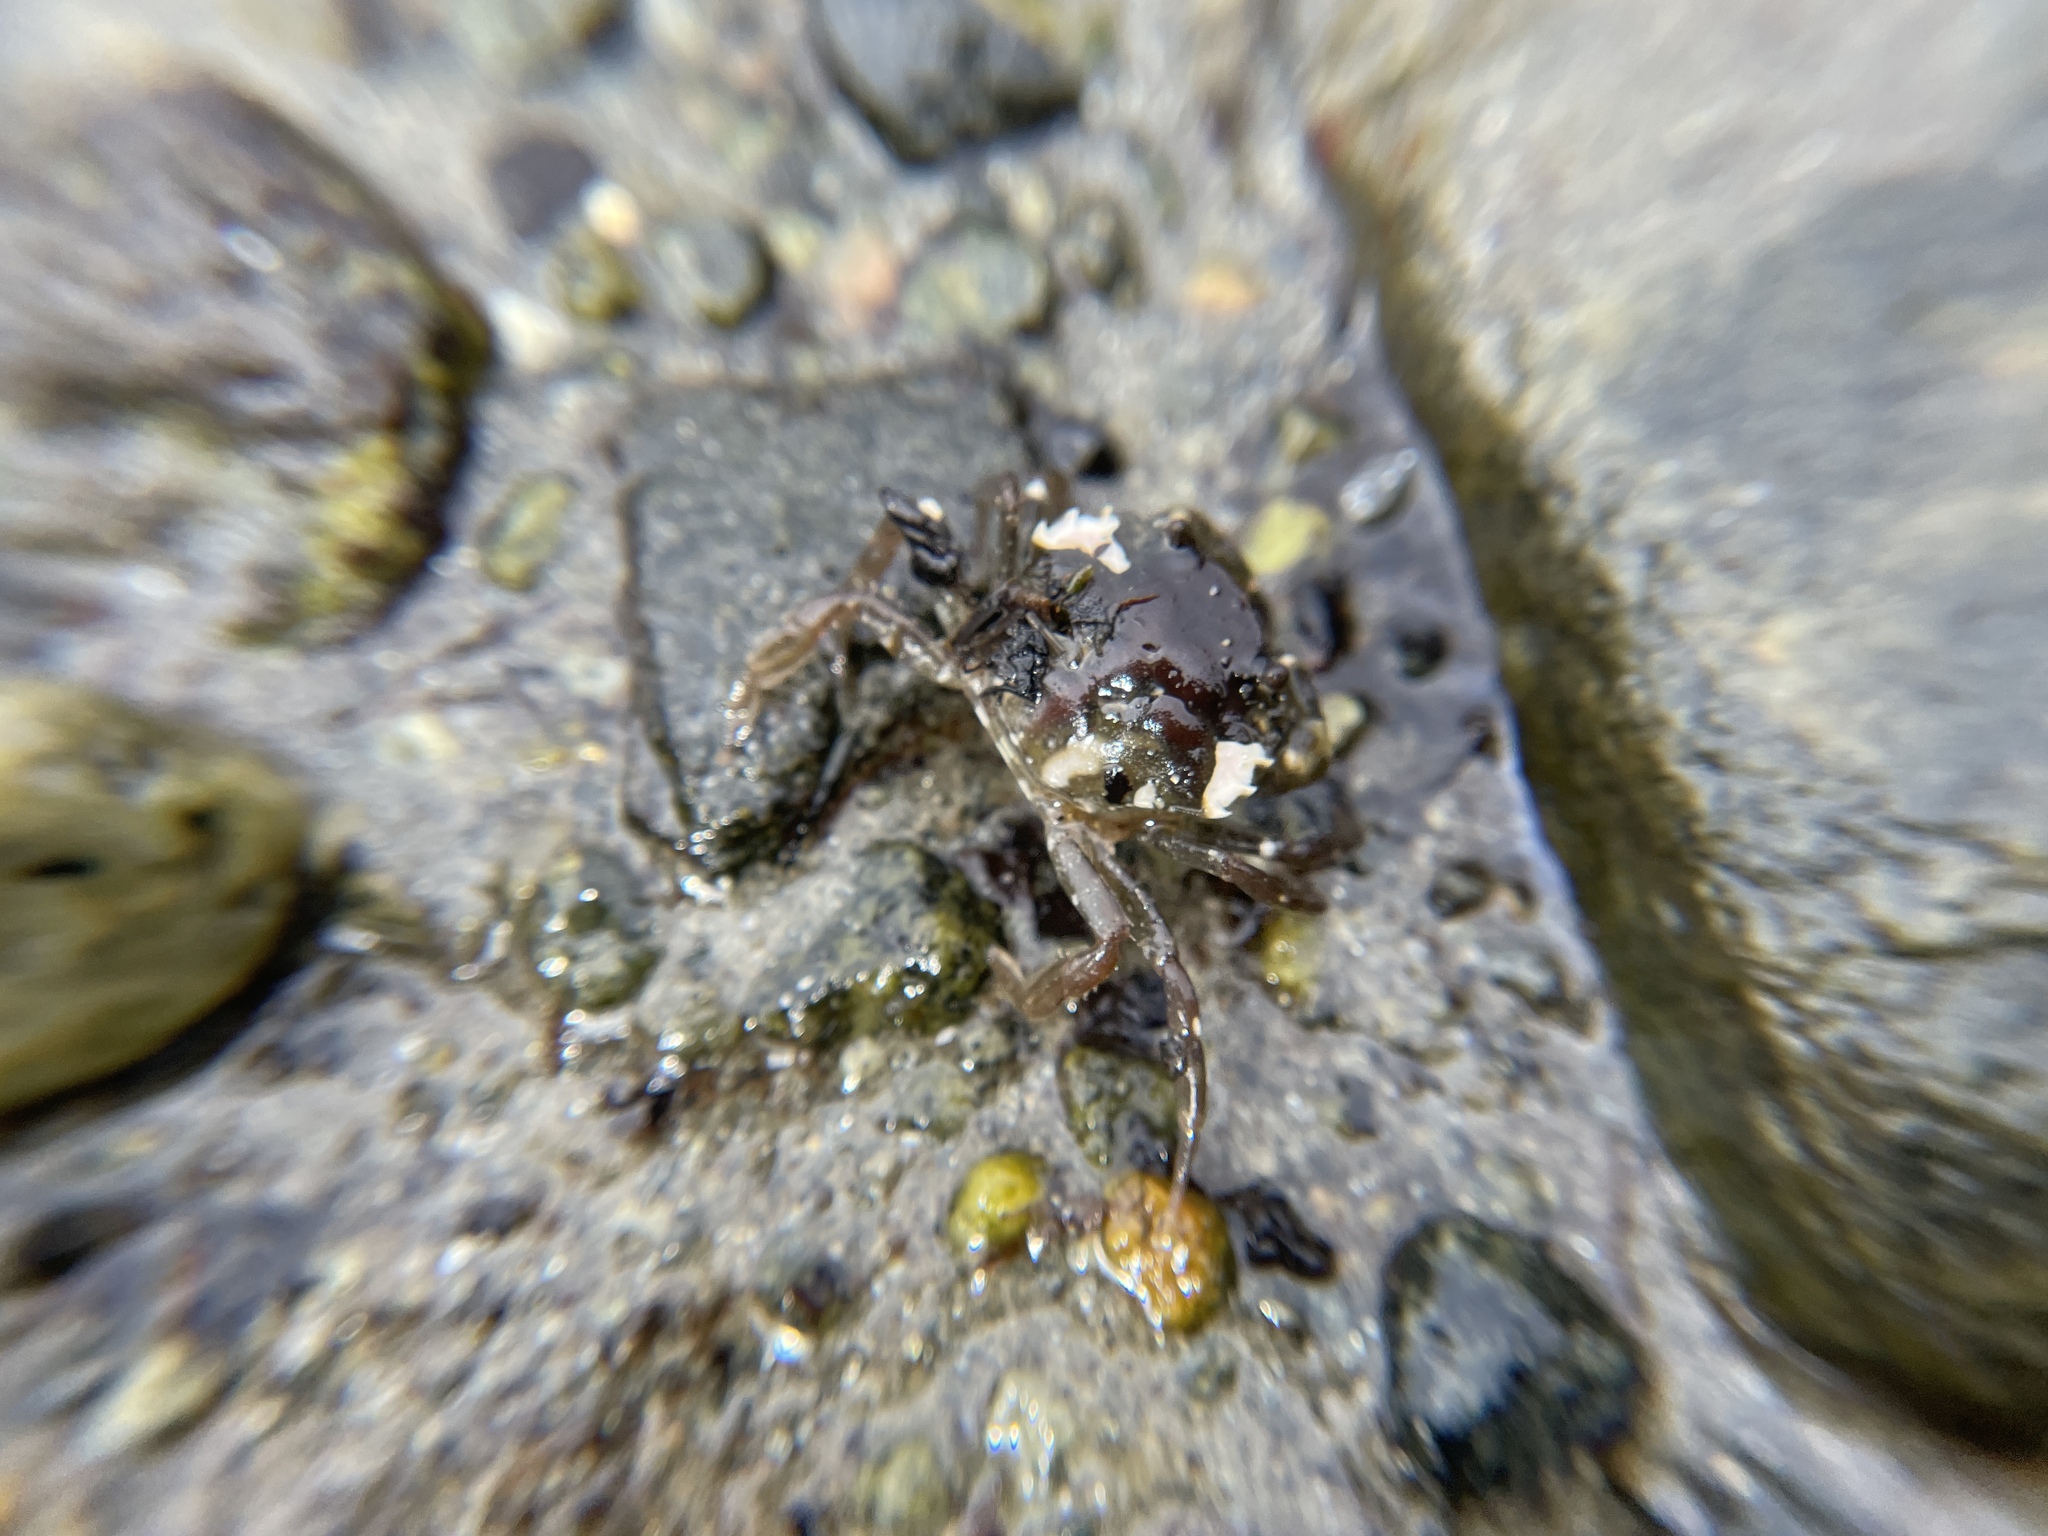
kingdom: Animalia
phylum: Arthropoda
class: Malacostraca
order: Decapoda
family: Carcinidae
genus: Carcinus
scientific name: Carcinus maenas
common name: European green crab
